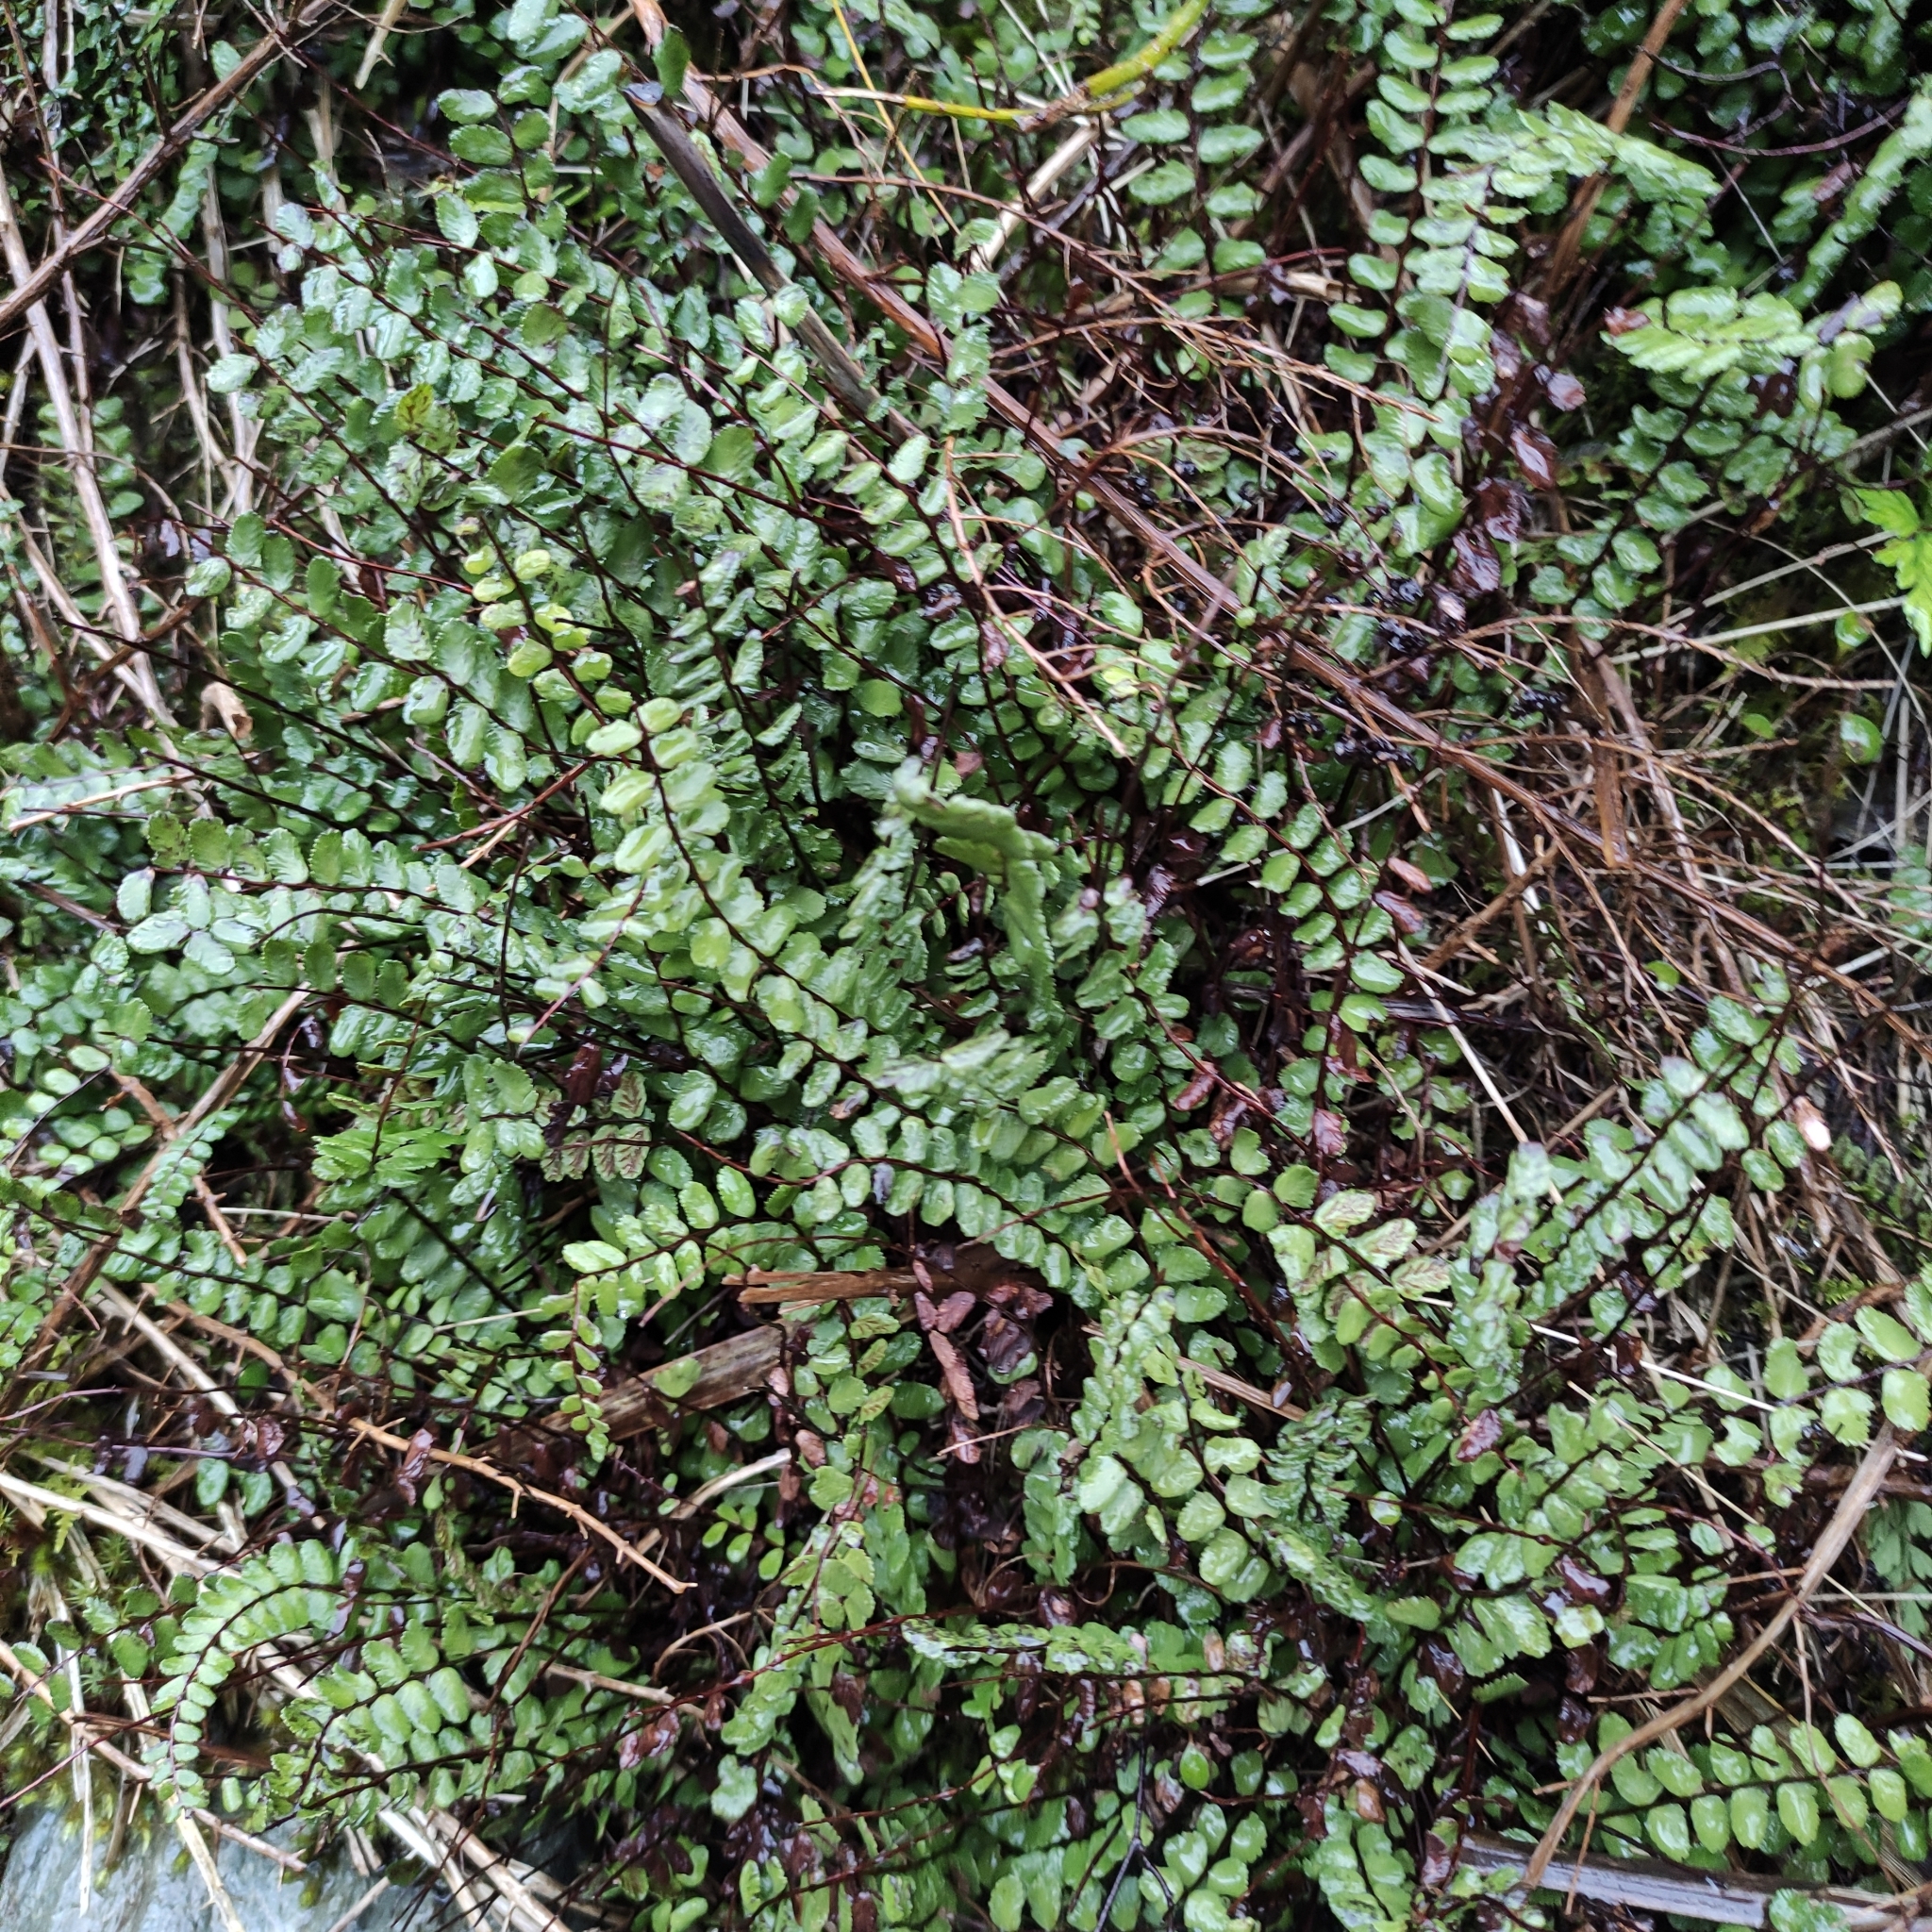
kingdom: Plantae
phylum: Tracheophyta
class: Polypodiopsida
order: Polypodiales
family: Aspleniaceae
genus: Asplenium
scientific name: Asplenium trichomanes
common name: Maidenhair spleenwort
